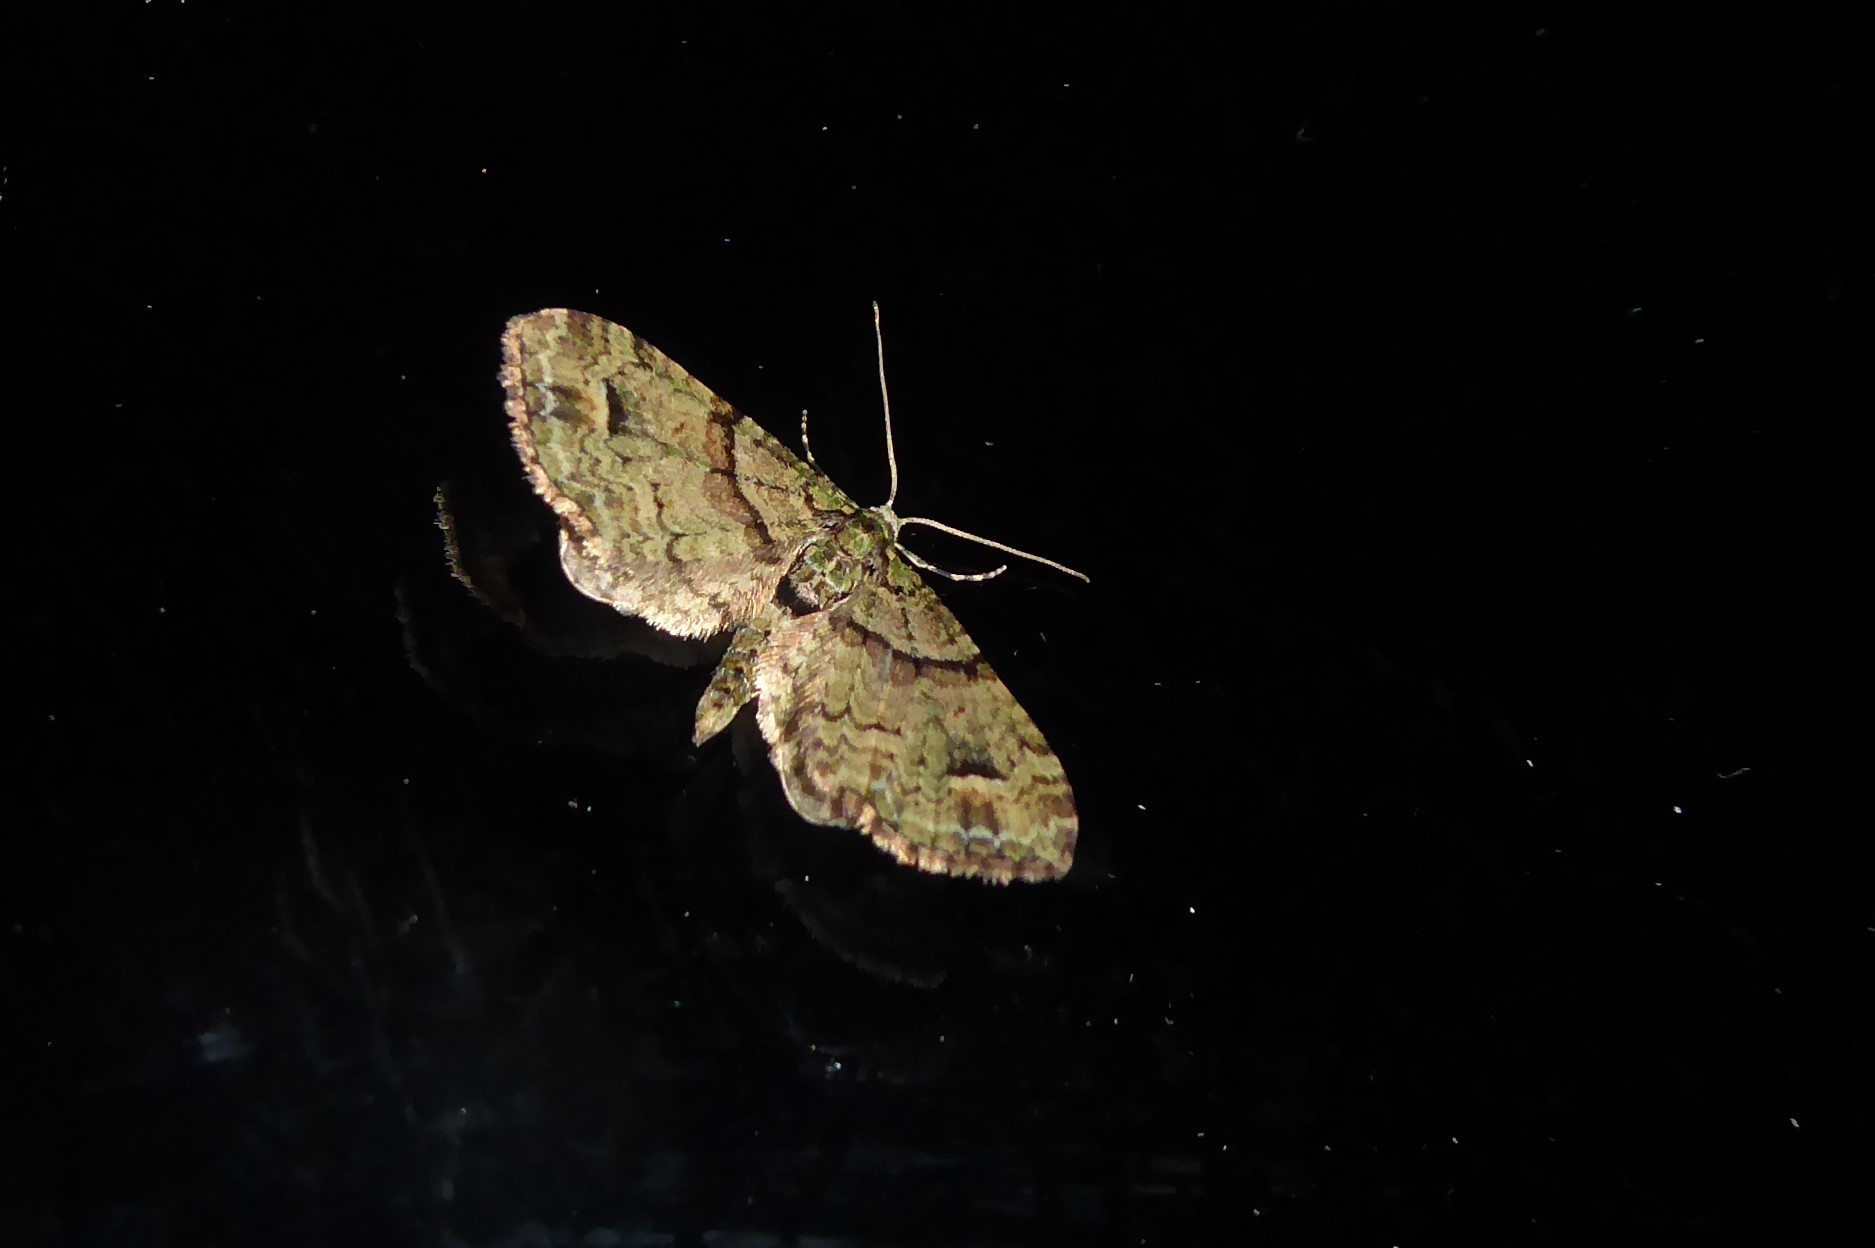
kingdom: Animalia
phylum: Arthropoda
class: Insecta
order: Lepidoptera
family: Geometridae
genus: Idaea
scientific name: Idaea mutanda
